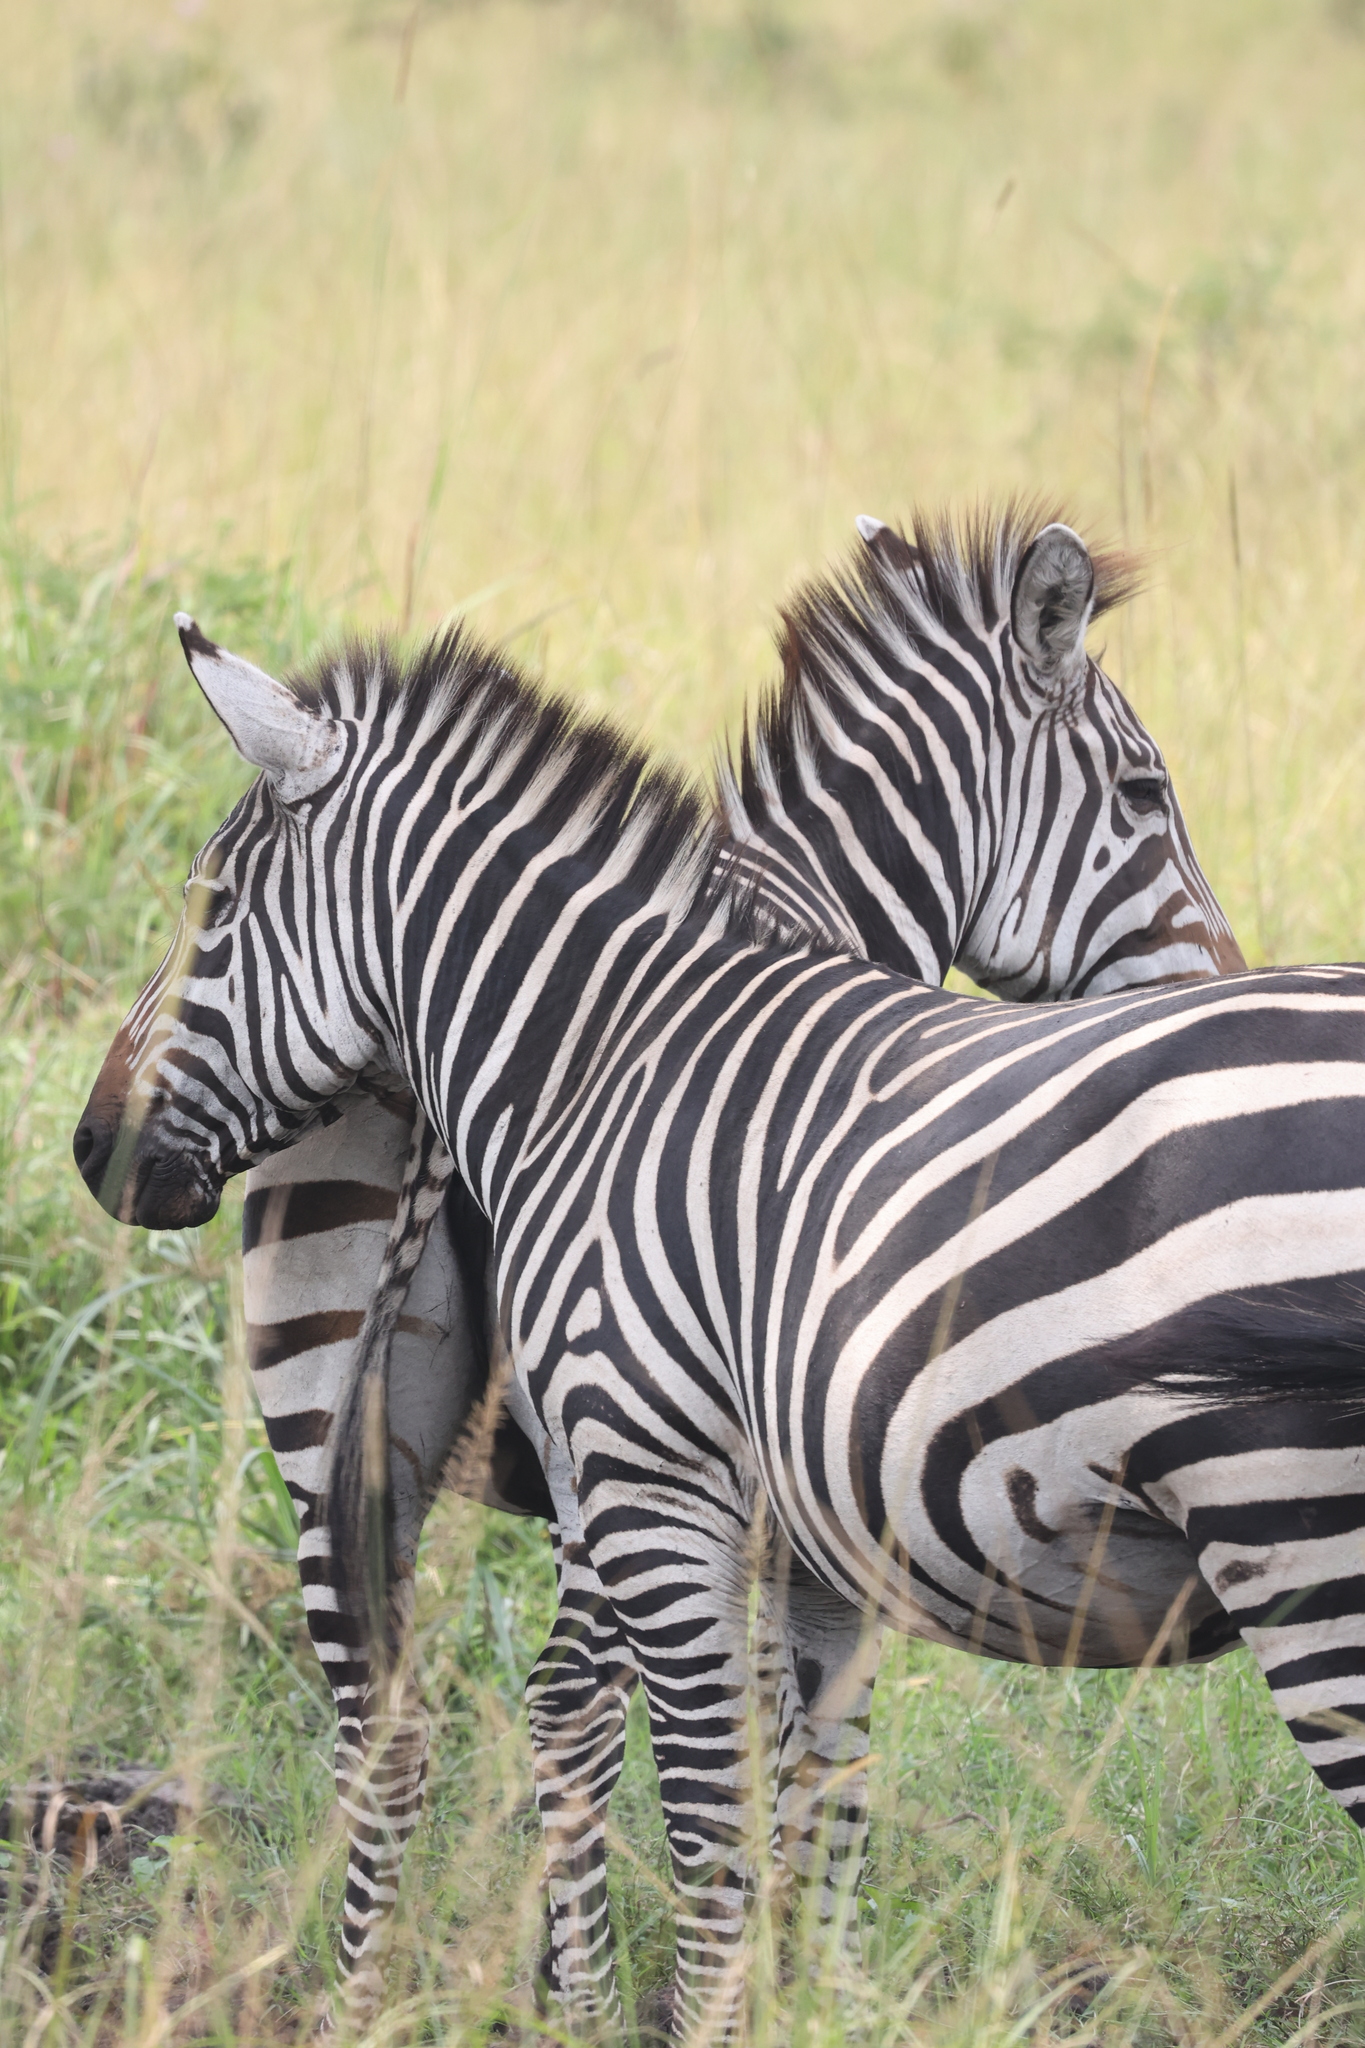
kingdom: Animalia
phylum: Chordata
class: Mammalia
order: Perissodactyla
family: Equidae
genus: Equus
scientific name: Equus quagga
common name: Plains zebra
